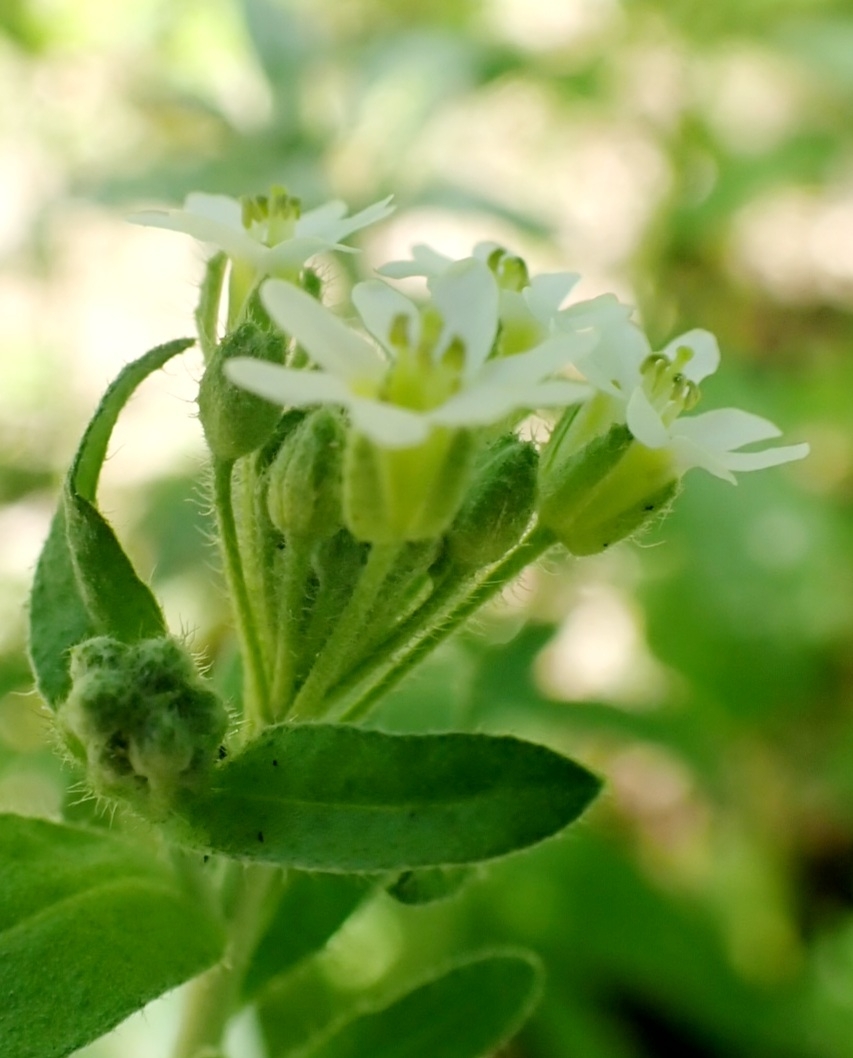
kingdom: Plantae
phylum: Tracheophyta
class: Magnoliopsida
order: Brassicales
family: Brassicaceae
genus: Berteroa
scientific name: Berteroa incana
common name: Hoary alison
